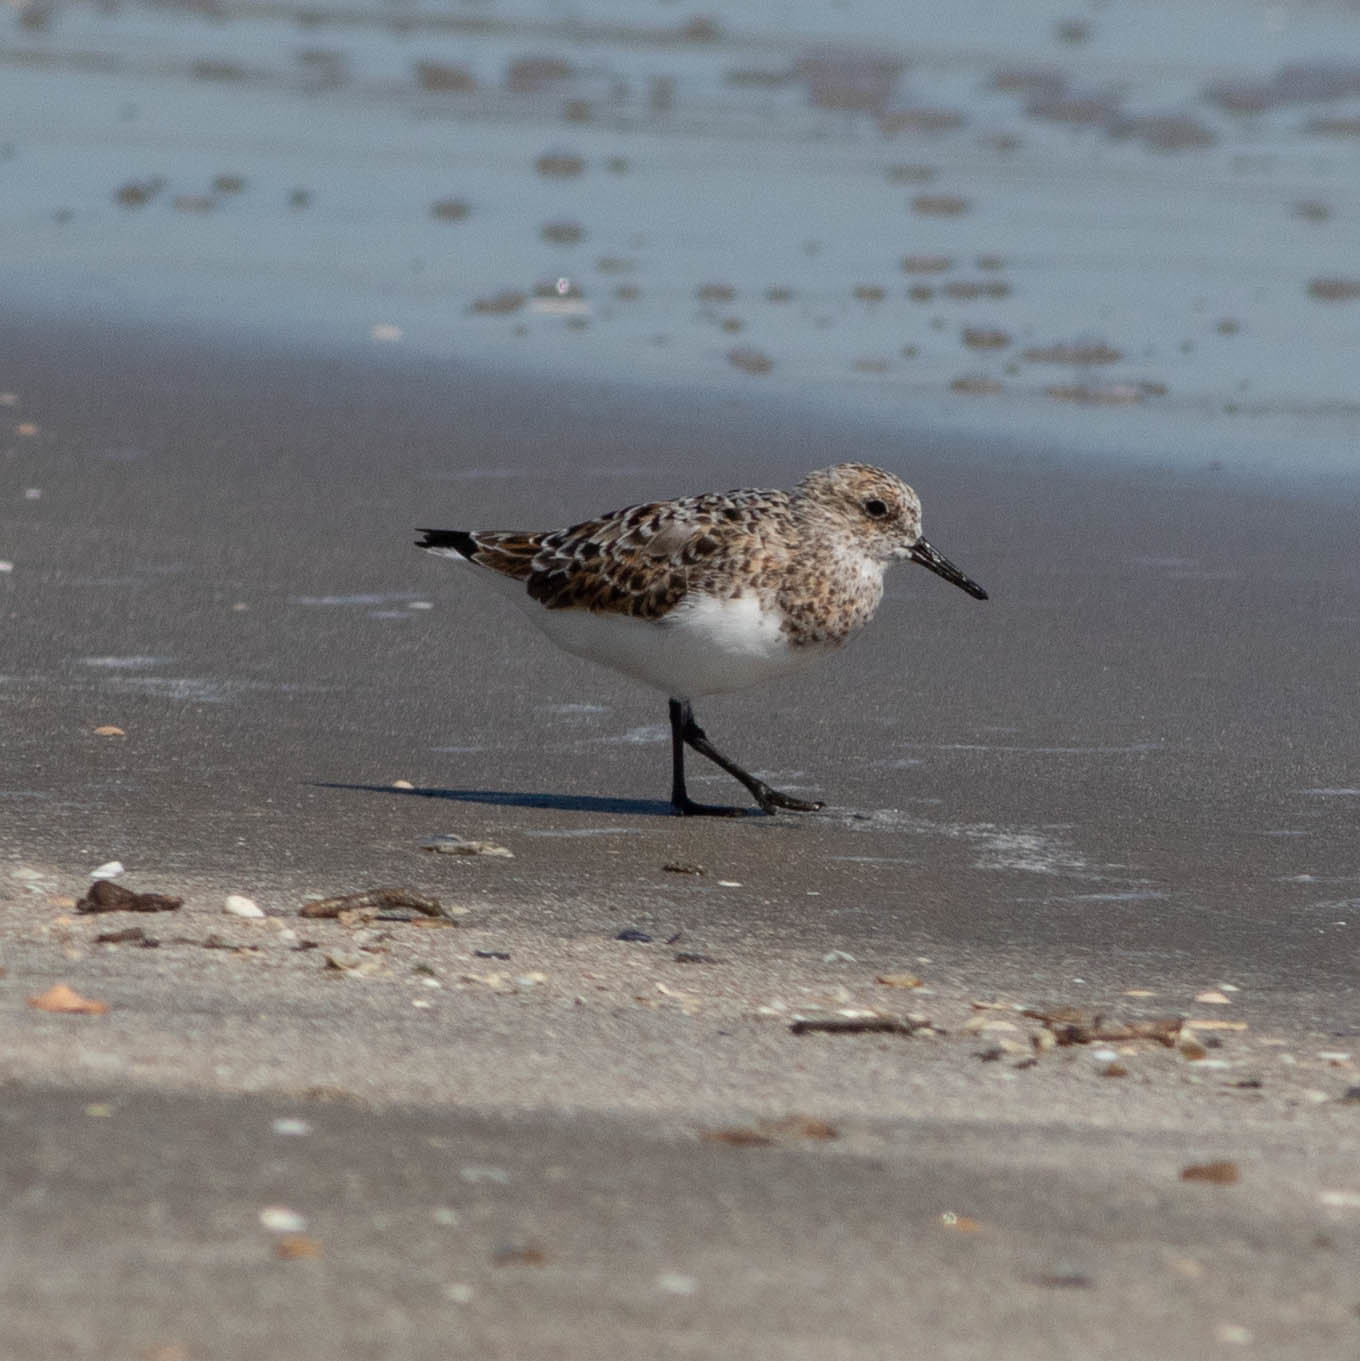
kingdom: Animalia
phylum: Chordata
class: Aves
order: Charadriiformes
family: Scolopacidae
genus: Calidris
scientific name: Calidris alba
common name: Sanderling
